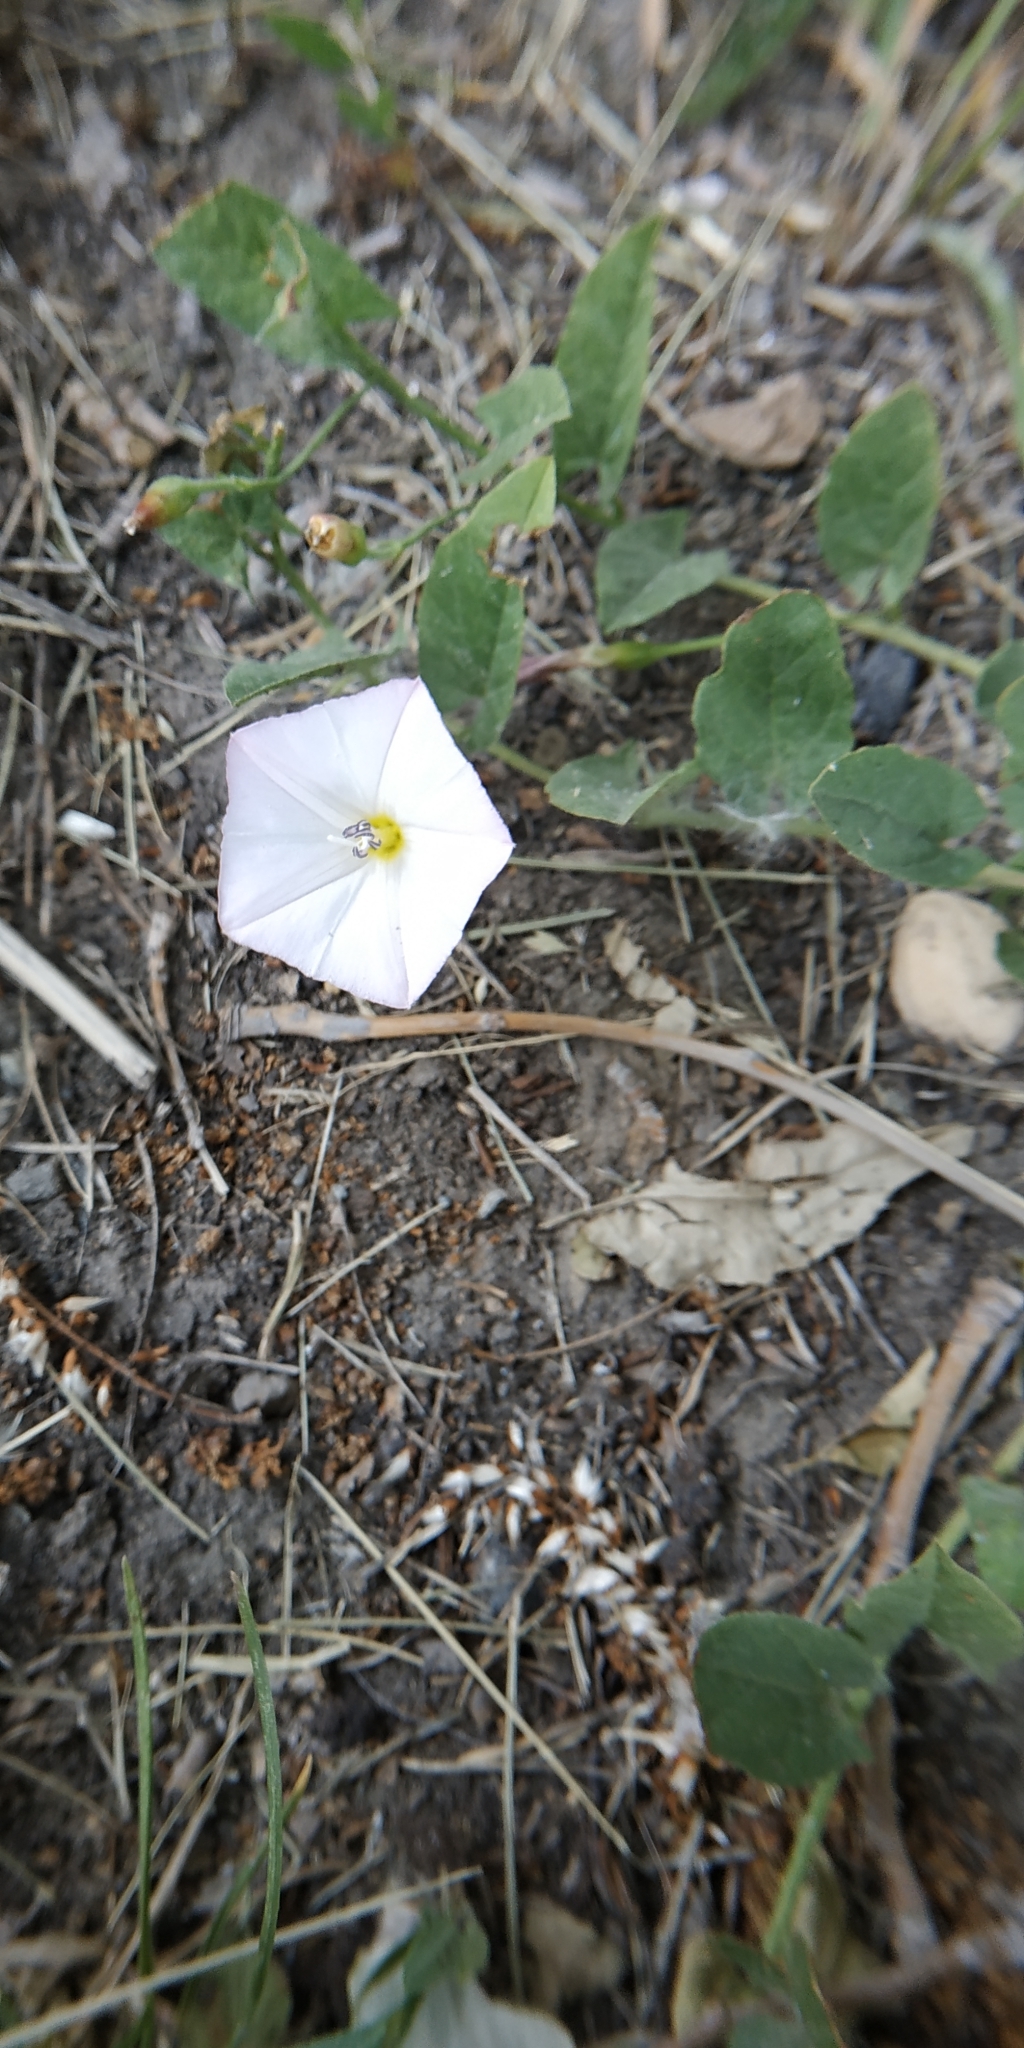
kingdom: Plantae
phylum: Tracheophyta
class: Magnoliopsida
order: Solanales
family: Convolvulaceae
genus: Convolvulus
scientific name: Convolvulus arvensis
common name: Field bindweed
